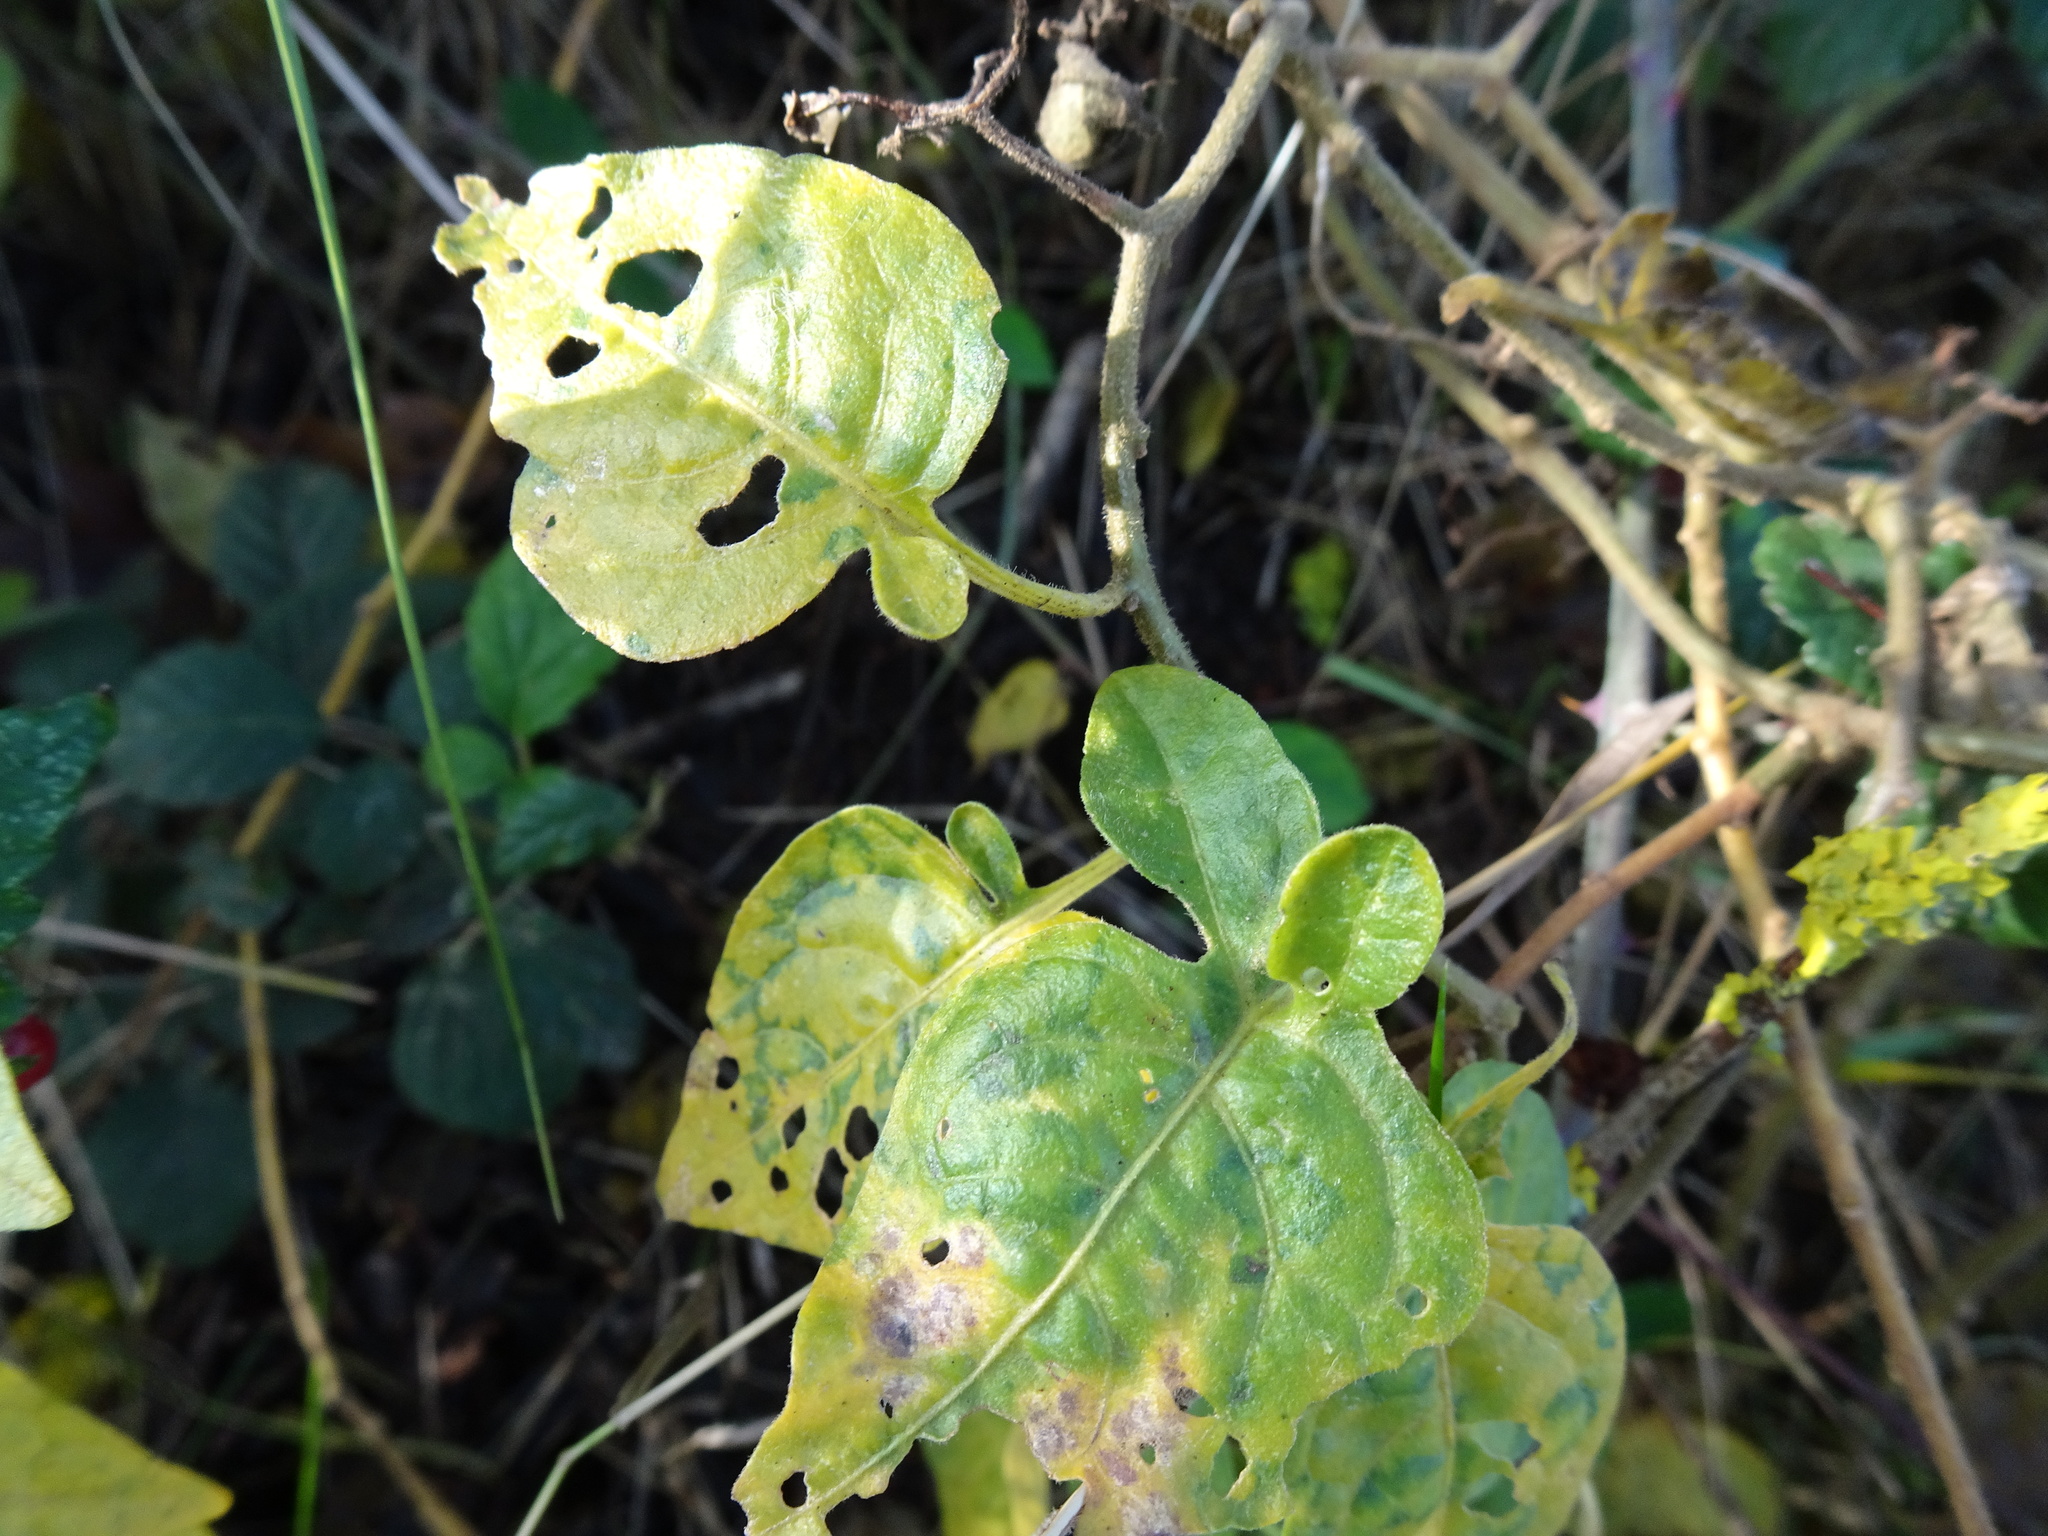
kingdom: Plantae
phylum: Tracheophyta
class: Magnoliopsida
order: Solanales
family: Solanaceae
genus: Solanum
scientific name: Solanum dulcamara
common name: Climbing nightshade
